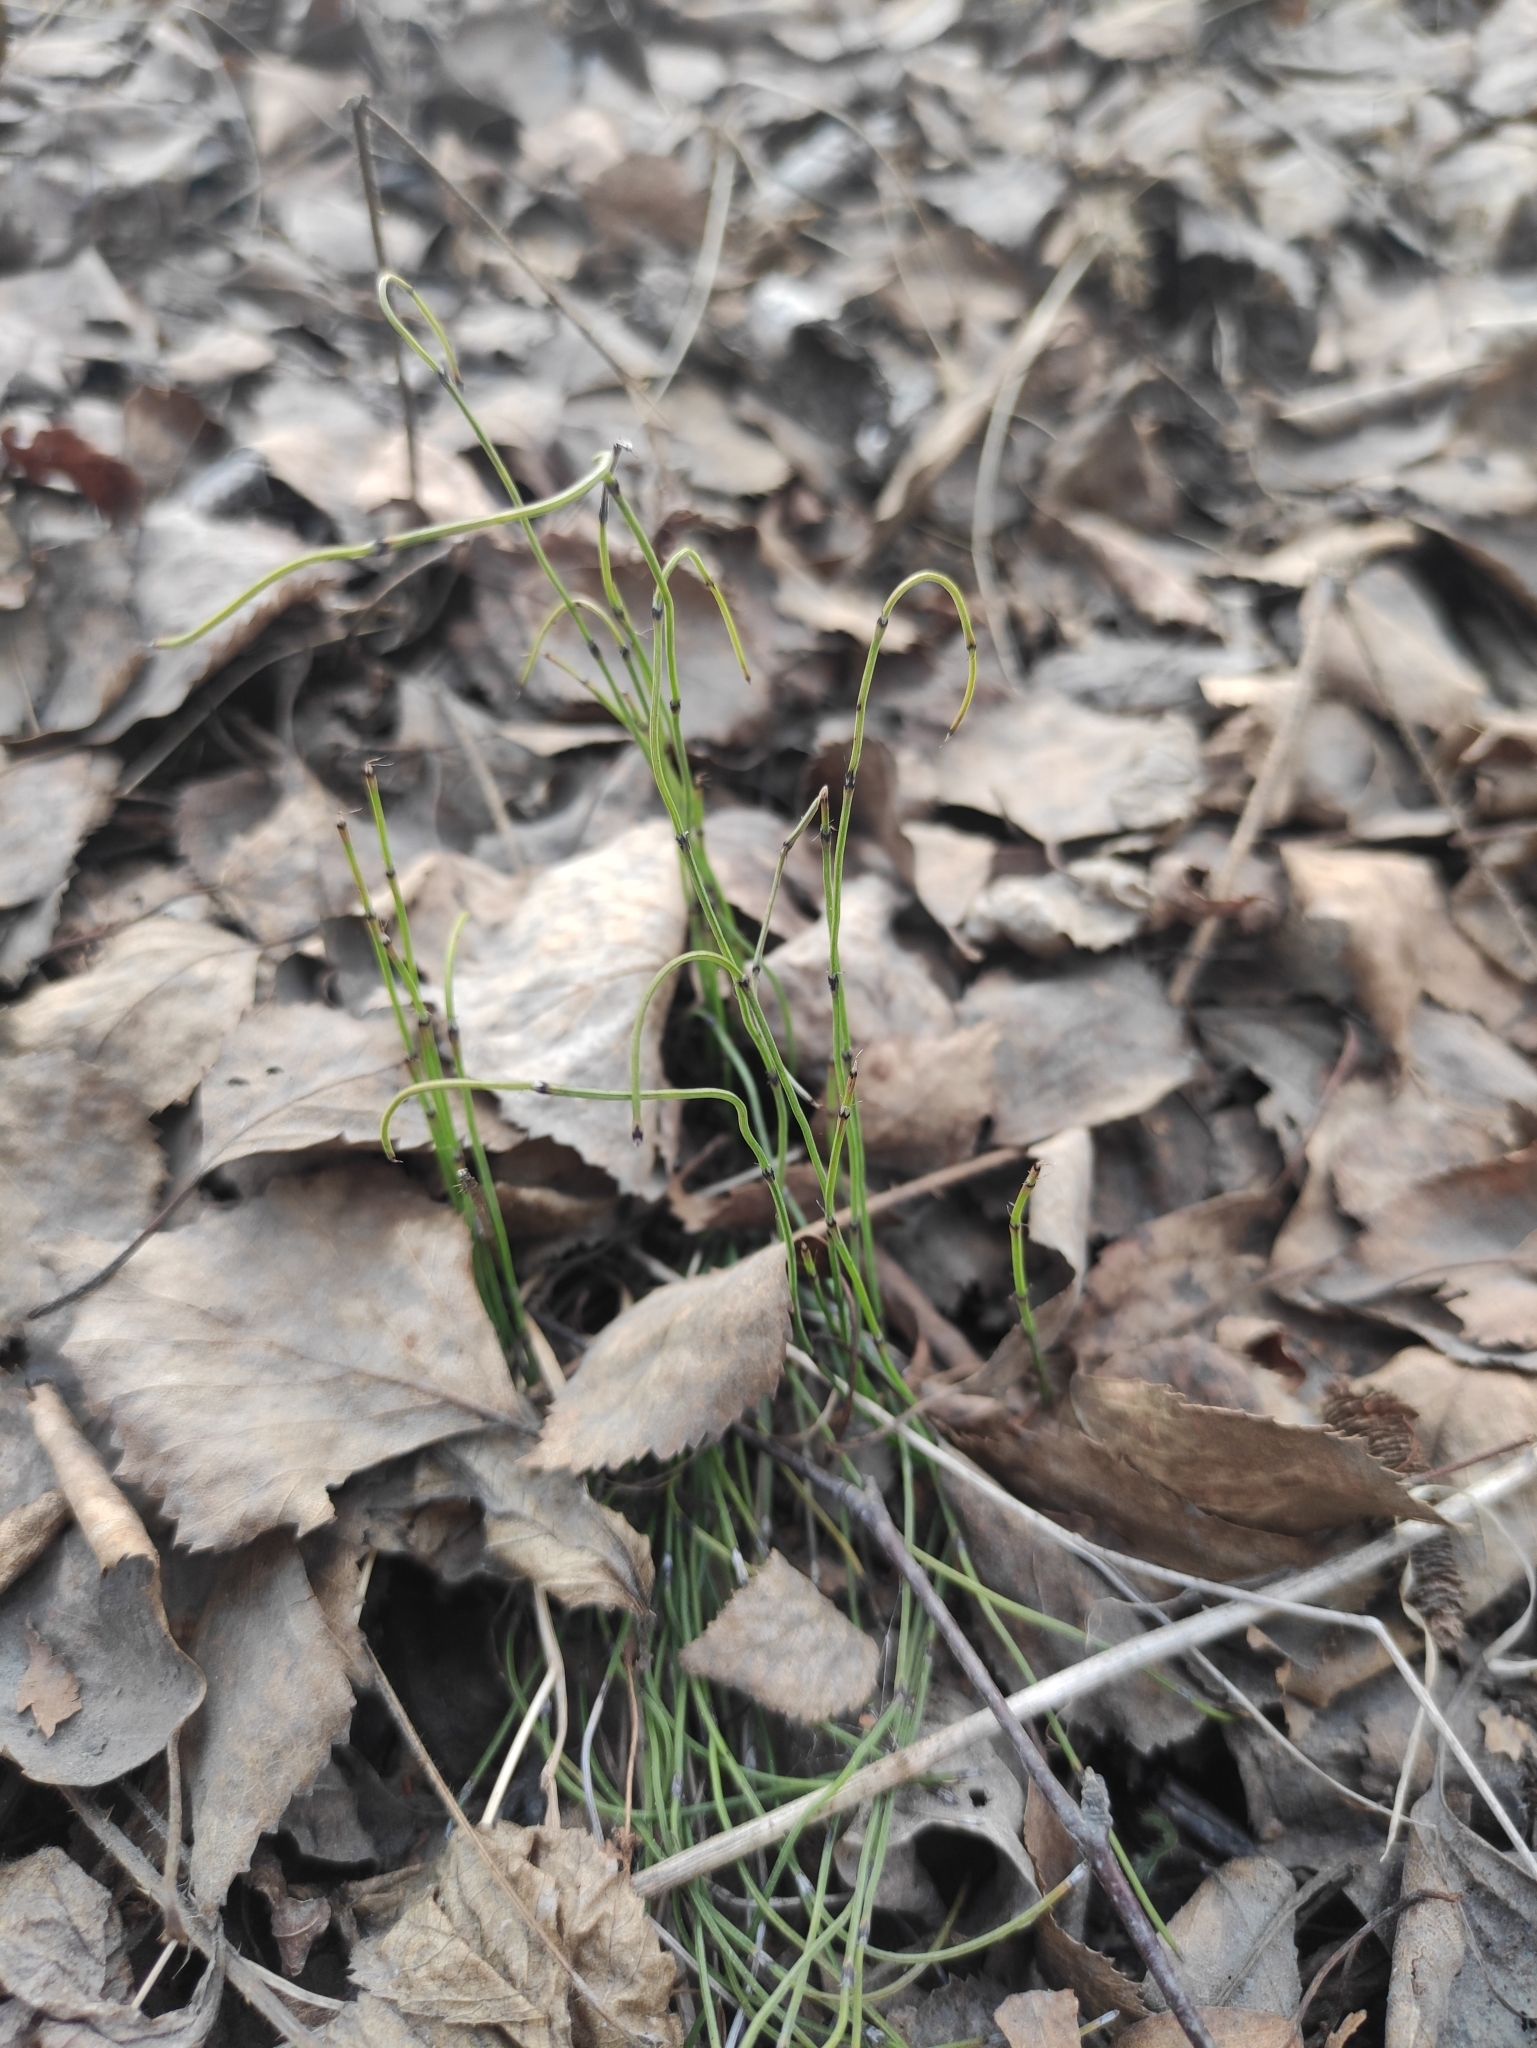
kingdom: Plantae
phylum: Tracheophyta
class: Polypodiopsida
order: Equisetales
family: Equisetaceae
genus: Equisetum
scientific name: Equisetum scirpoides
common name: Delicate horsetail
